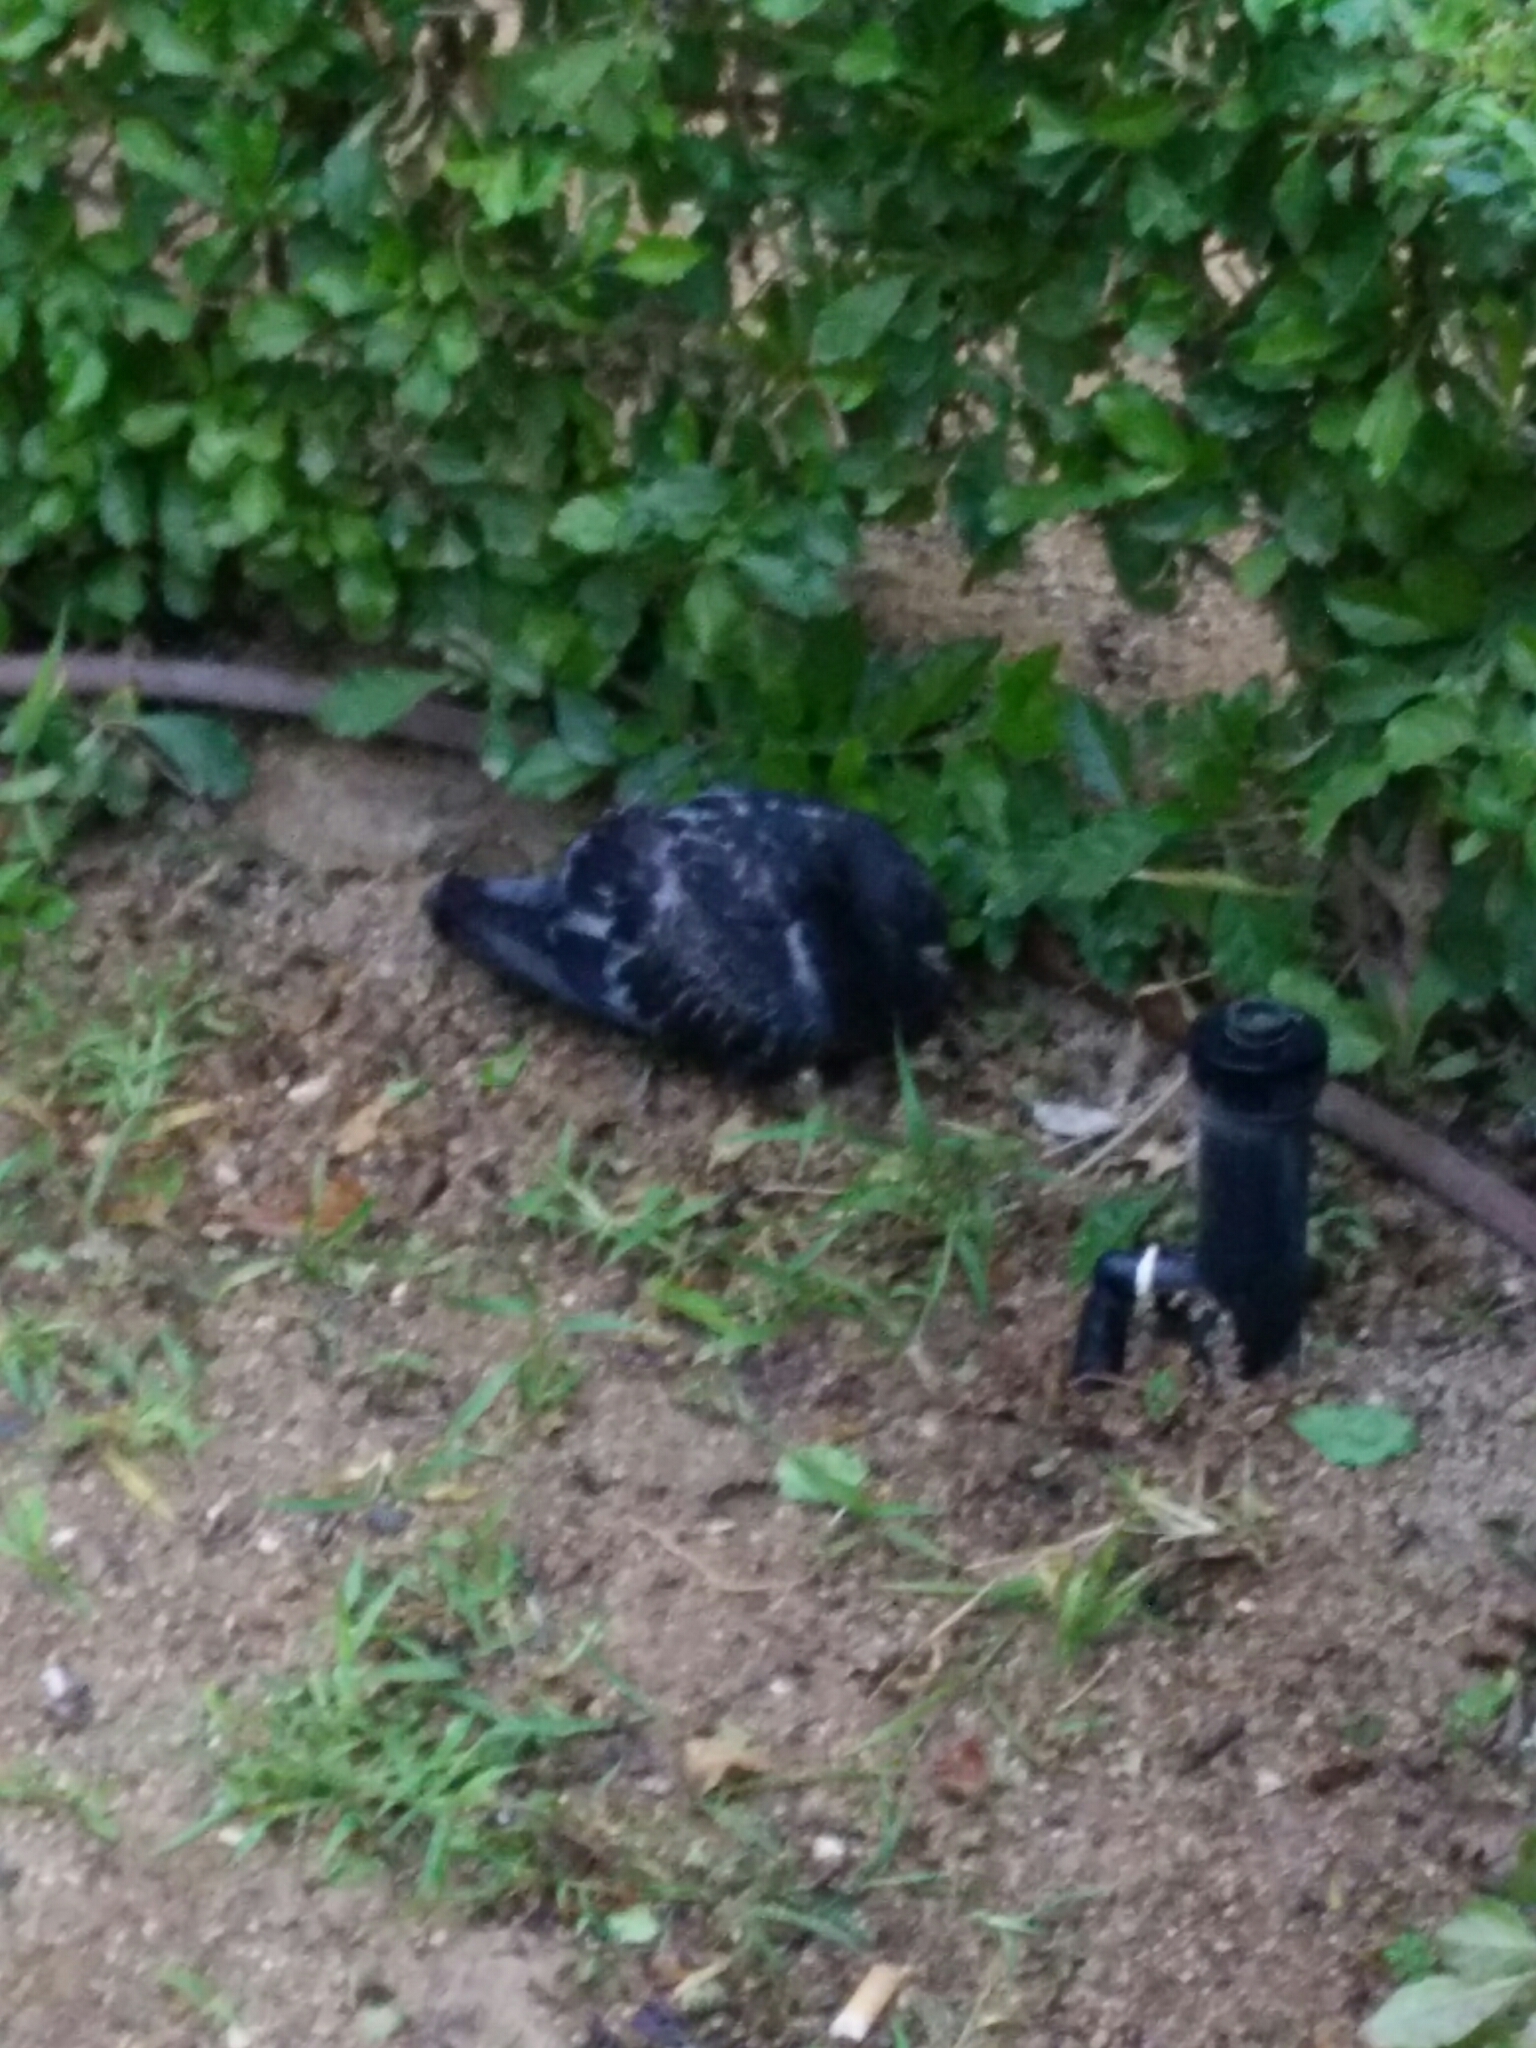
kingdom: Animalia
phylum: Chordata
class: Aves
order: Columbiformes
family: Columbidae
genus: Columba
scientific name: Columba livia
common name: Rock pigeon
